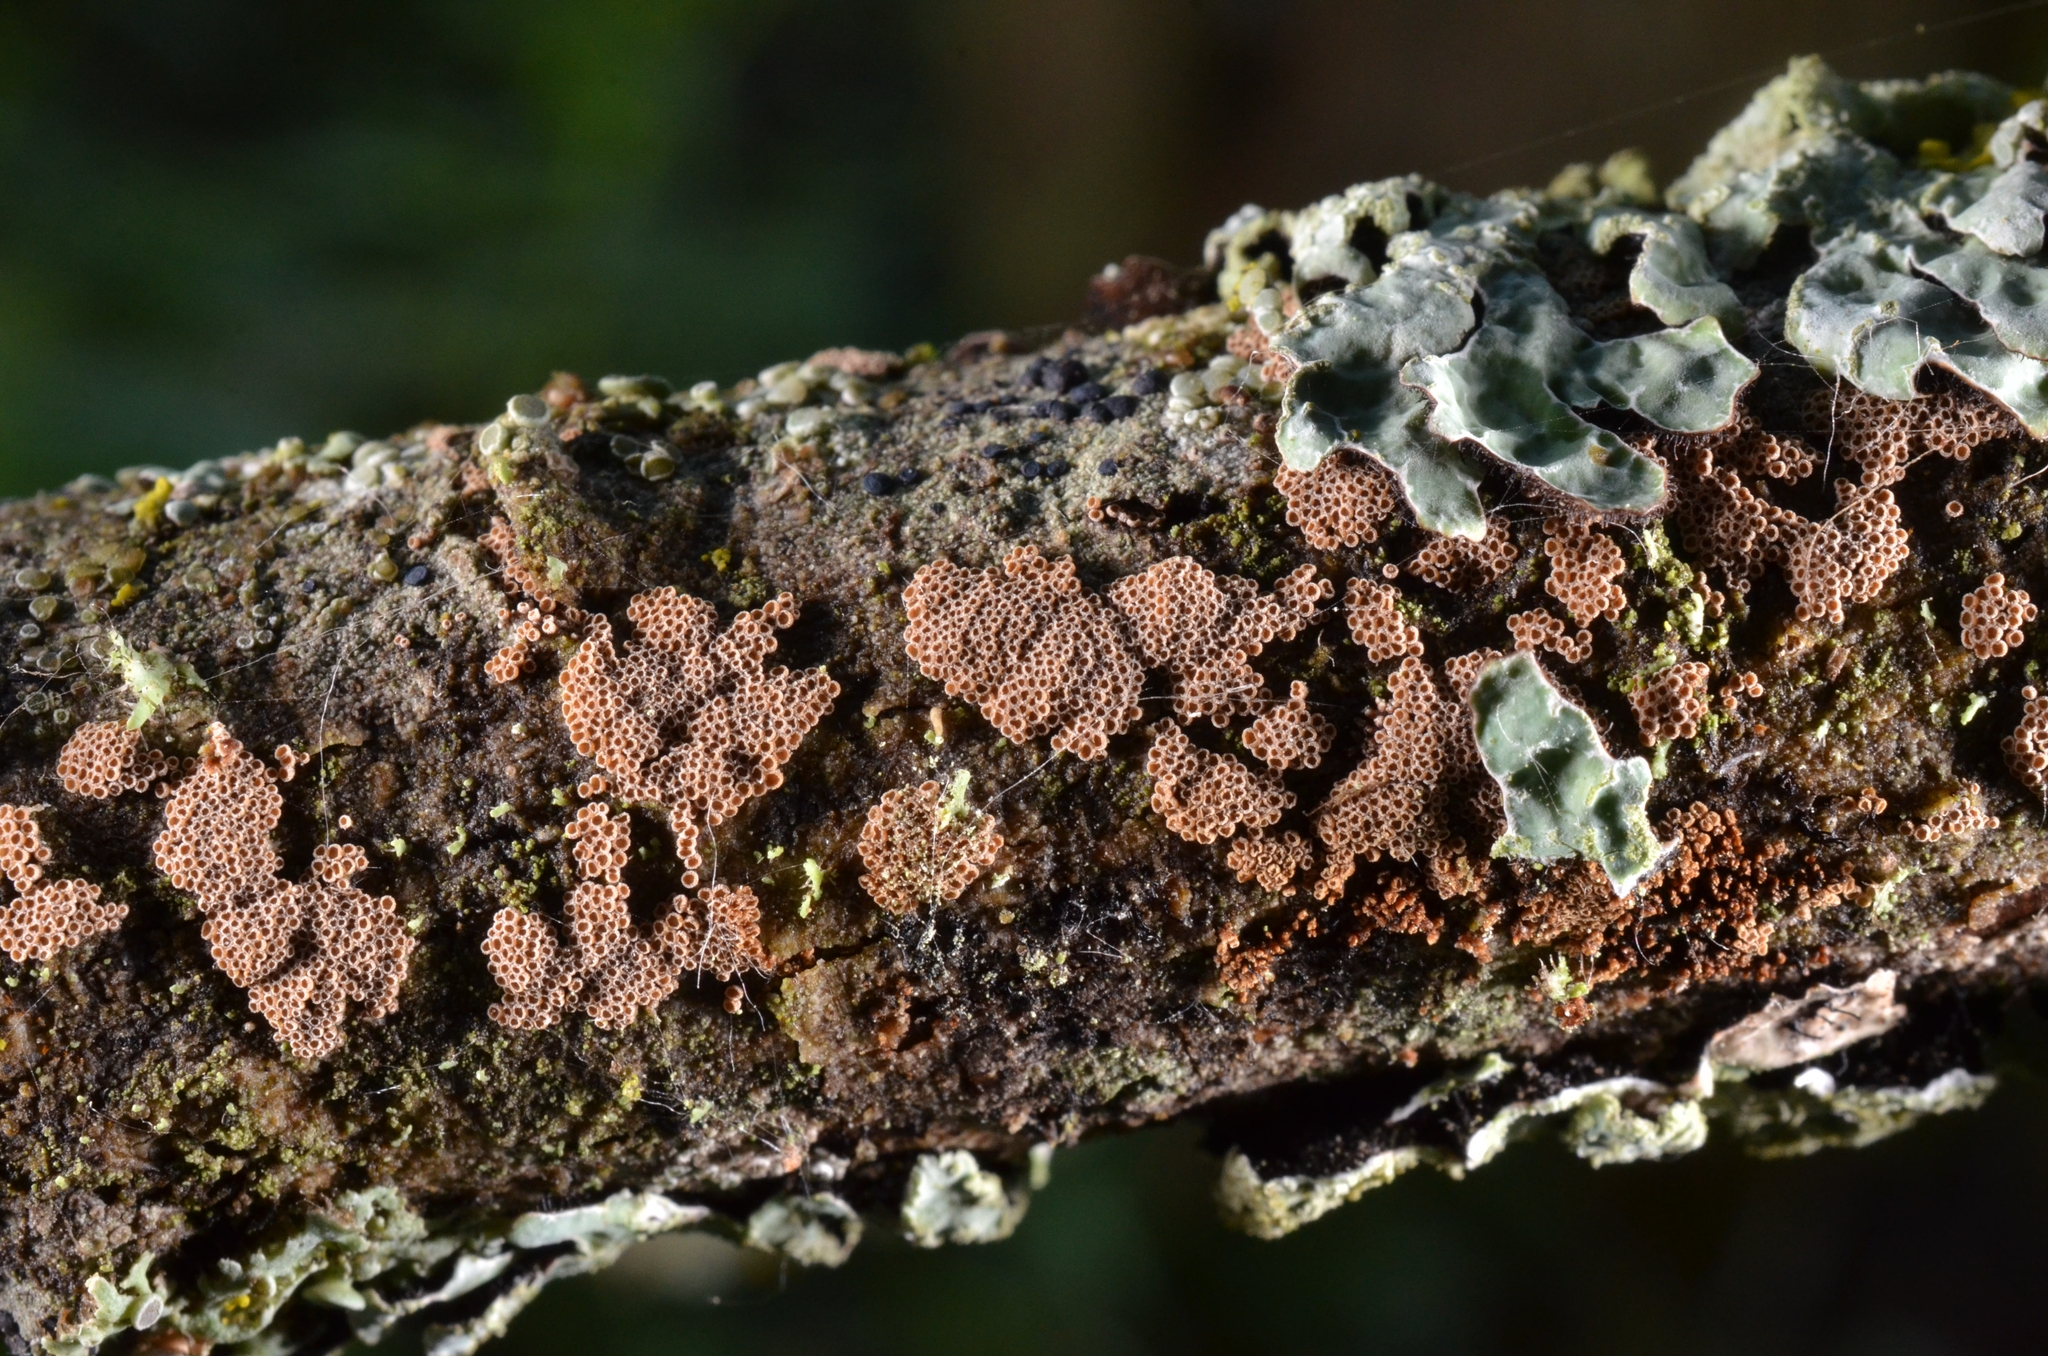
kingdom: Fungi
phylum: Basidiomycota
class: Agaricomycetes
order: Agaricales
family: Niaceae
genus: Merismodes
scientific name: Merismodes fasciculata
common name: Crowded cuplet
